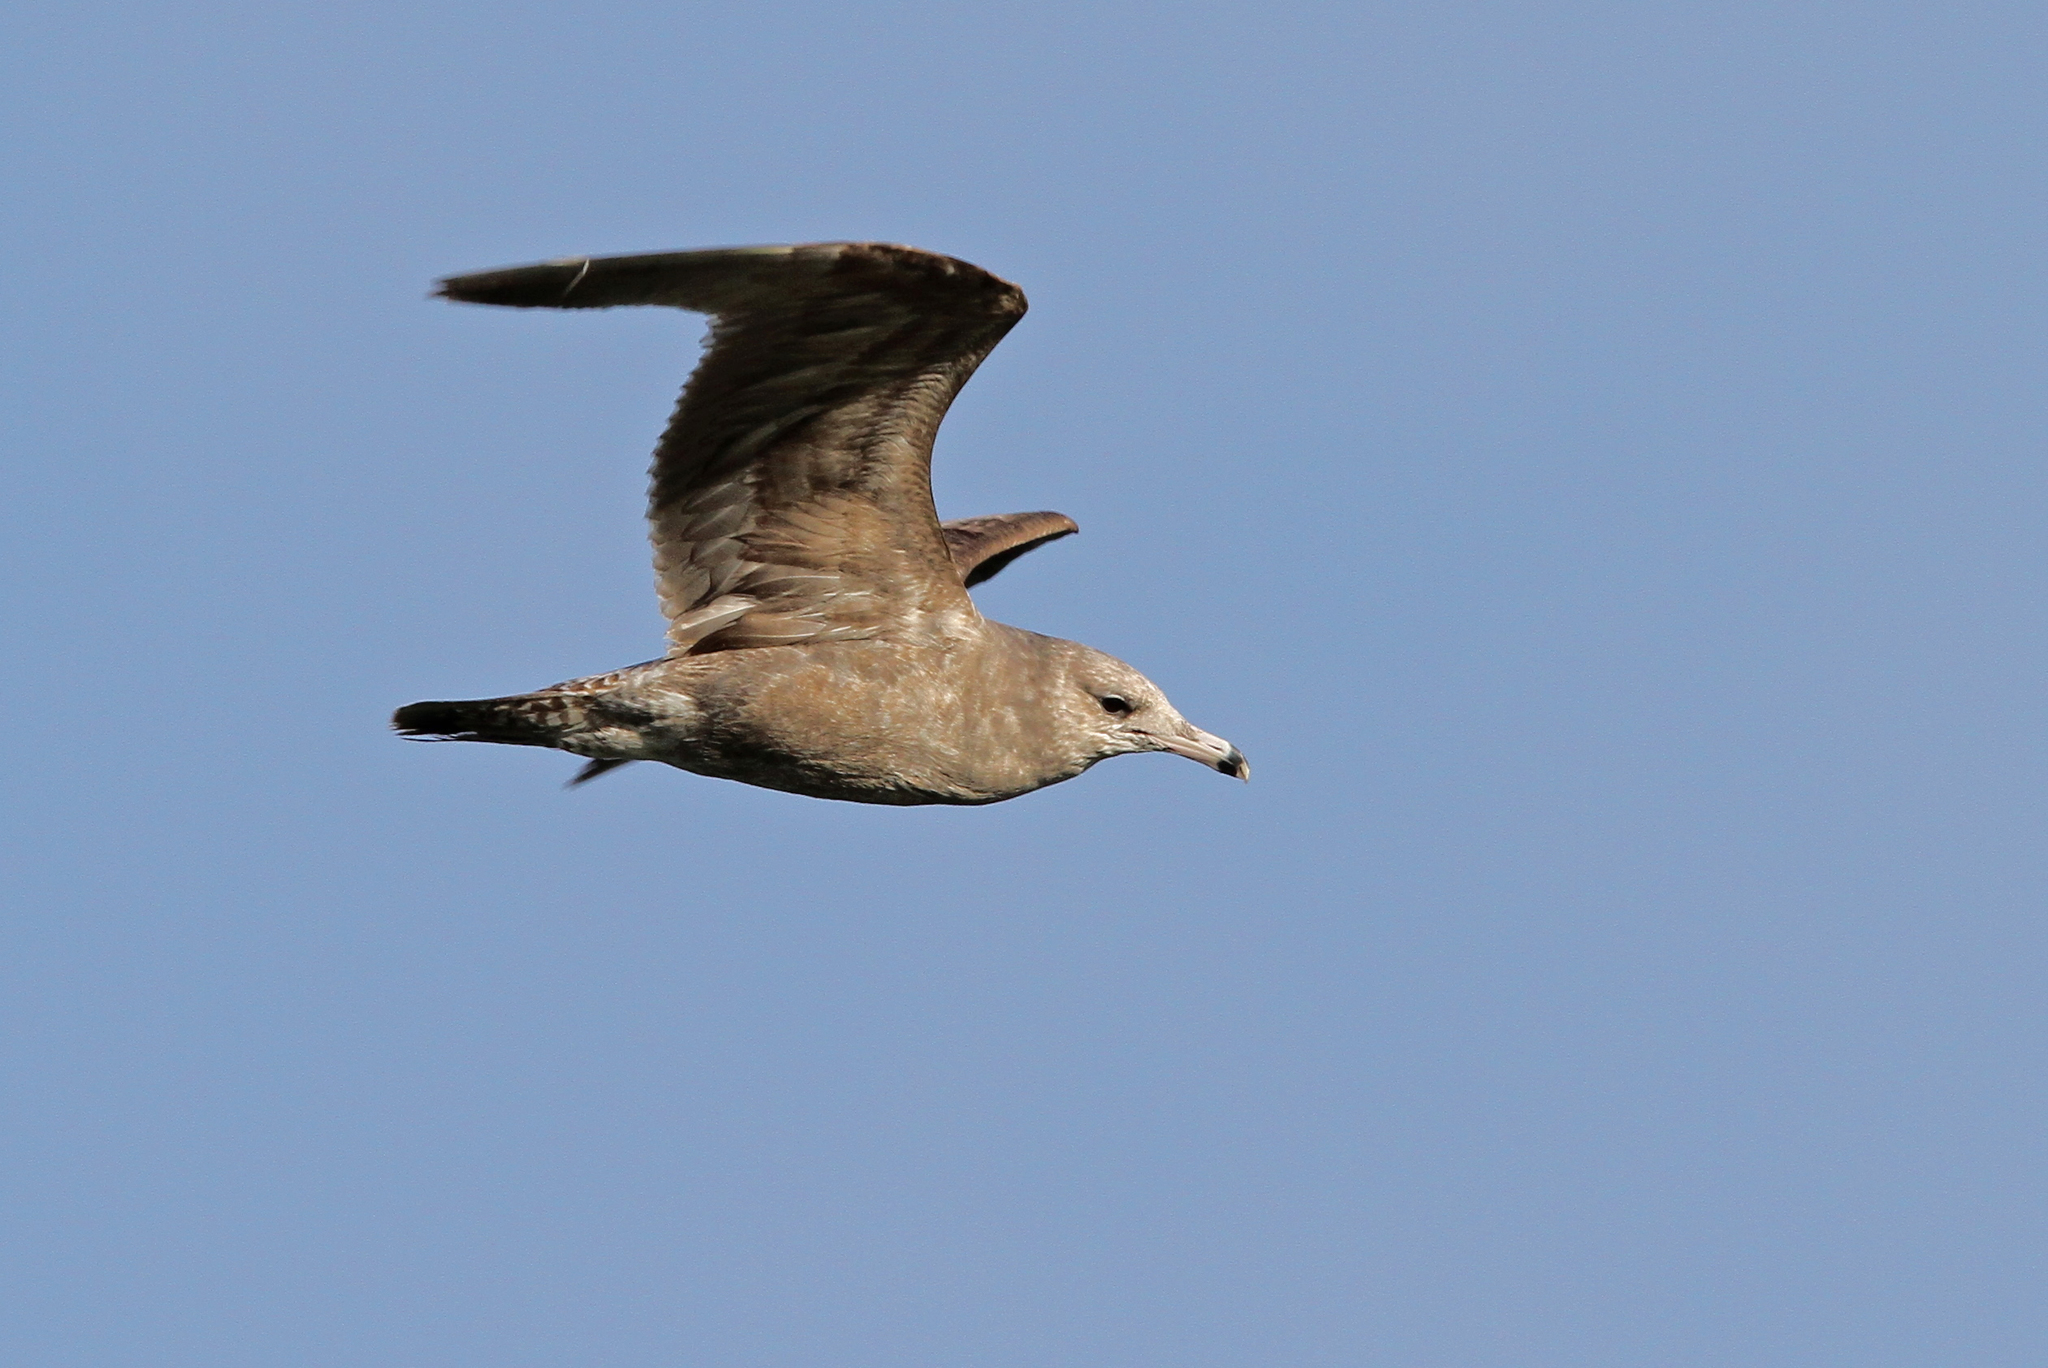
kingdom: Animalia
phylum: Chordata
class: Aves
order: Charadriiformes
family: Laridae
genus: Larus
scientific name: Larus californicus
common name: California gull
